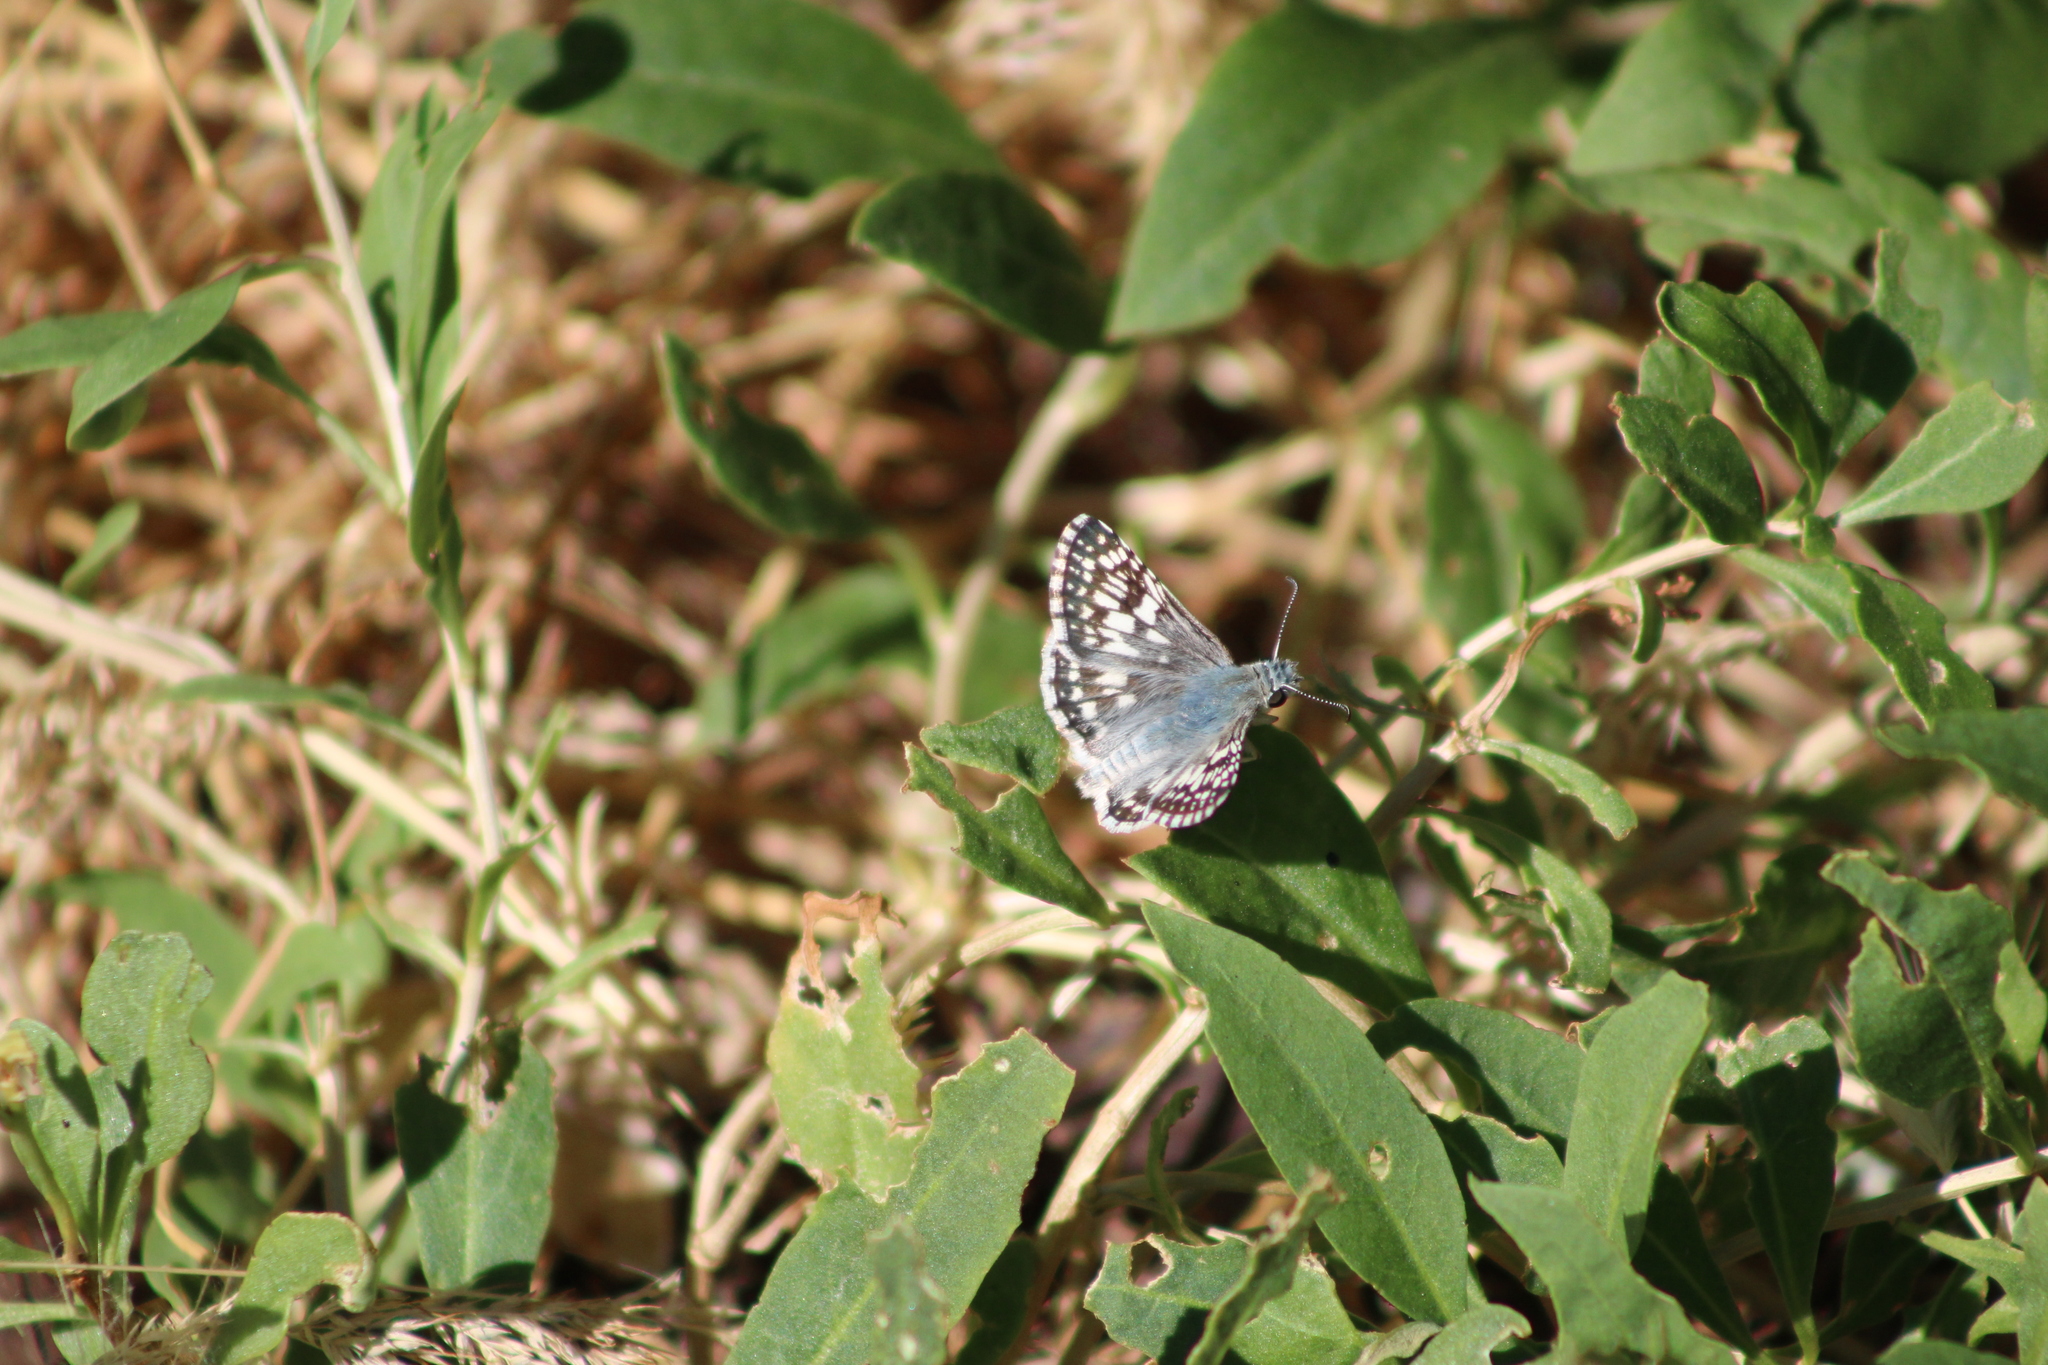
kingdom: Animalia
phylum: Arthropoda
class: Insecta
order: Lepidoptera
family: Hesperiidae
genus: Burnsius
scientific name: Burnsius communis
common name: Common checkered-skipper
